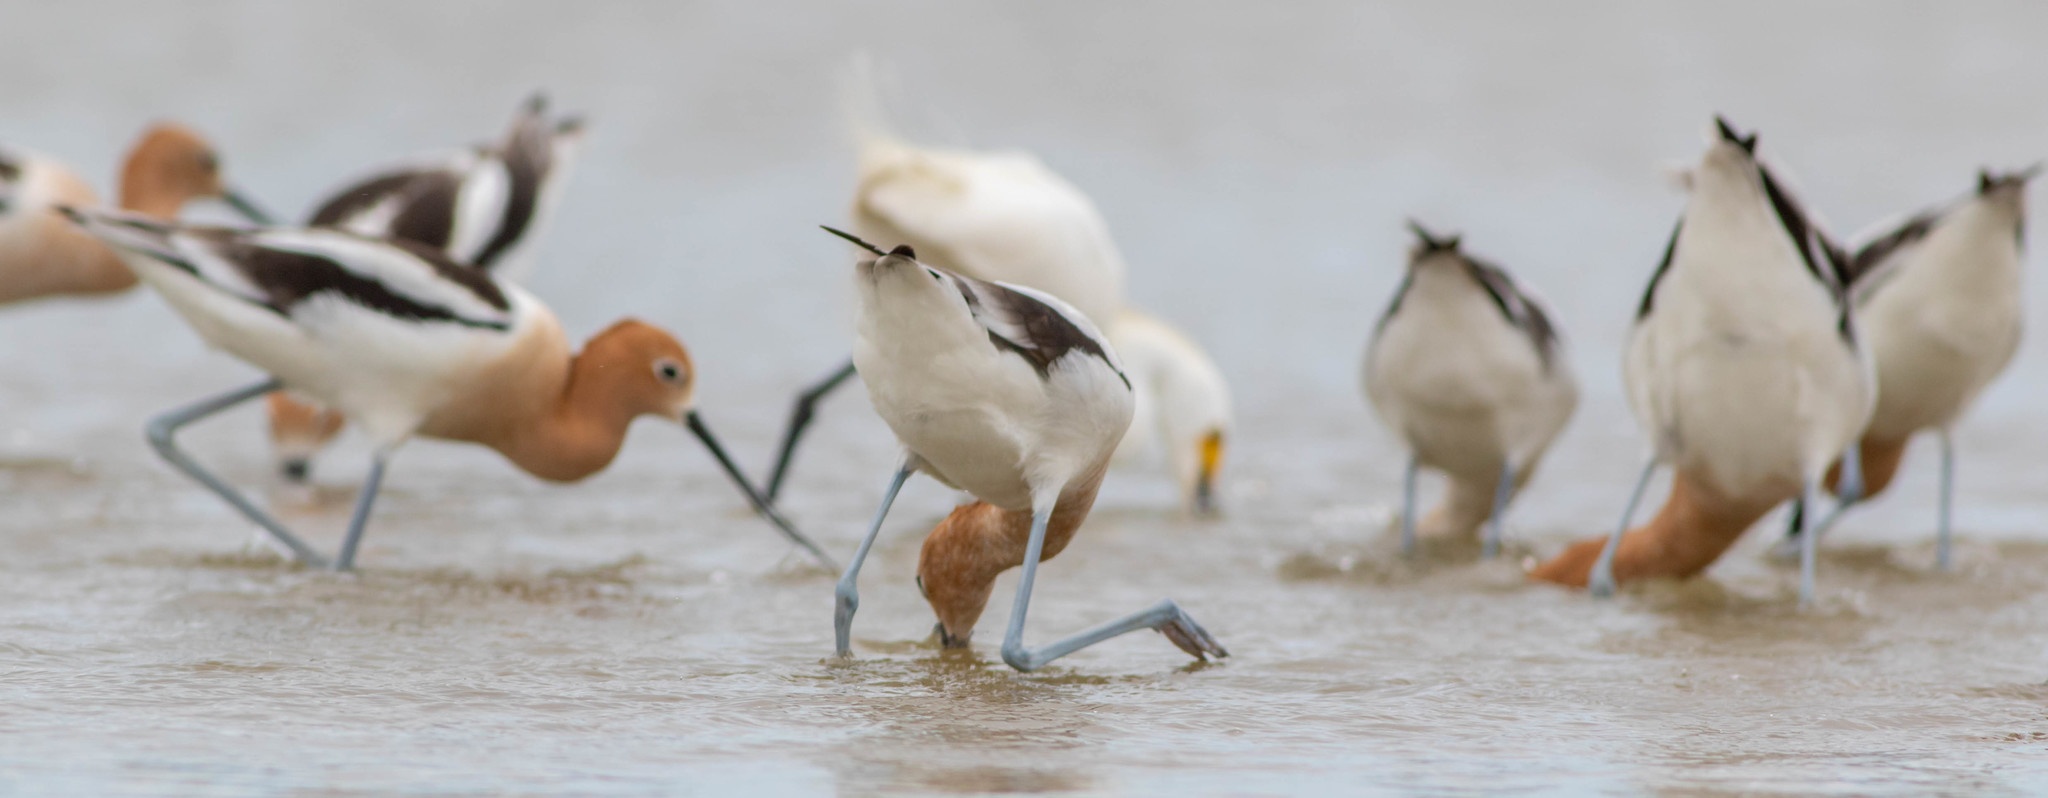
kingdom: Animalia
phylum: Chordata
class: Aves
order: Charadriiformes
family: Recurvirostridae
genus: Recurvirostra
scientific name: Recurvirostra americana
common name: American avocet
